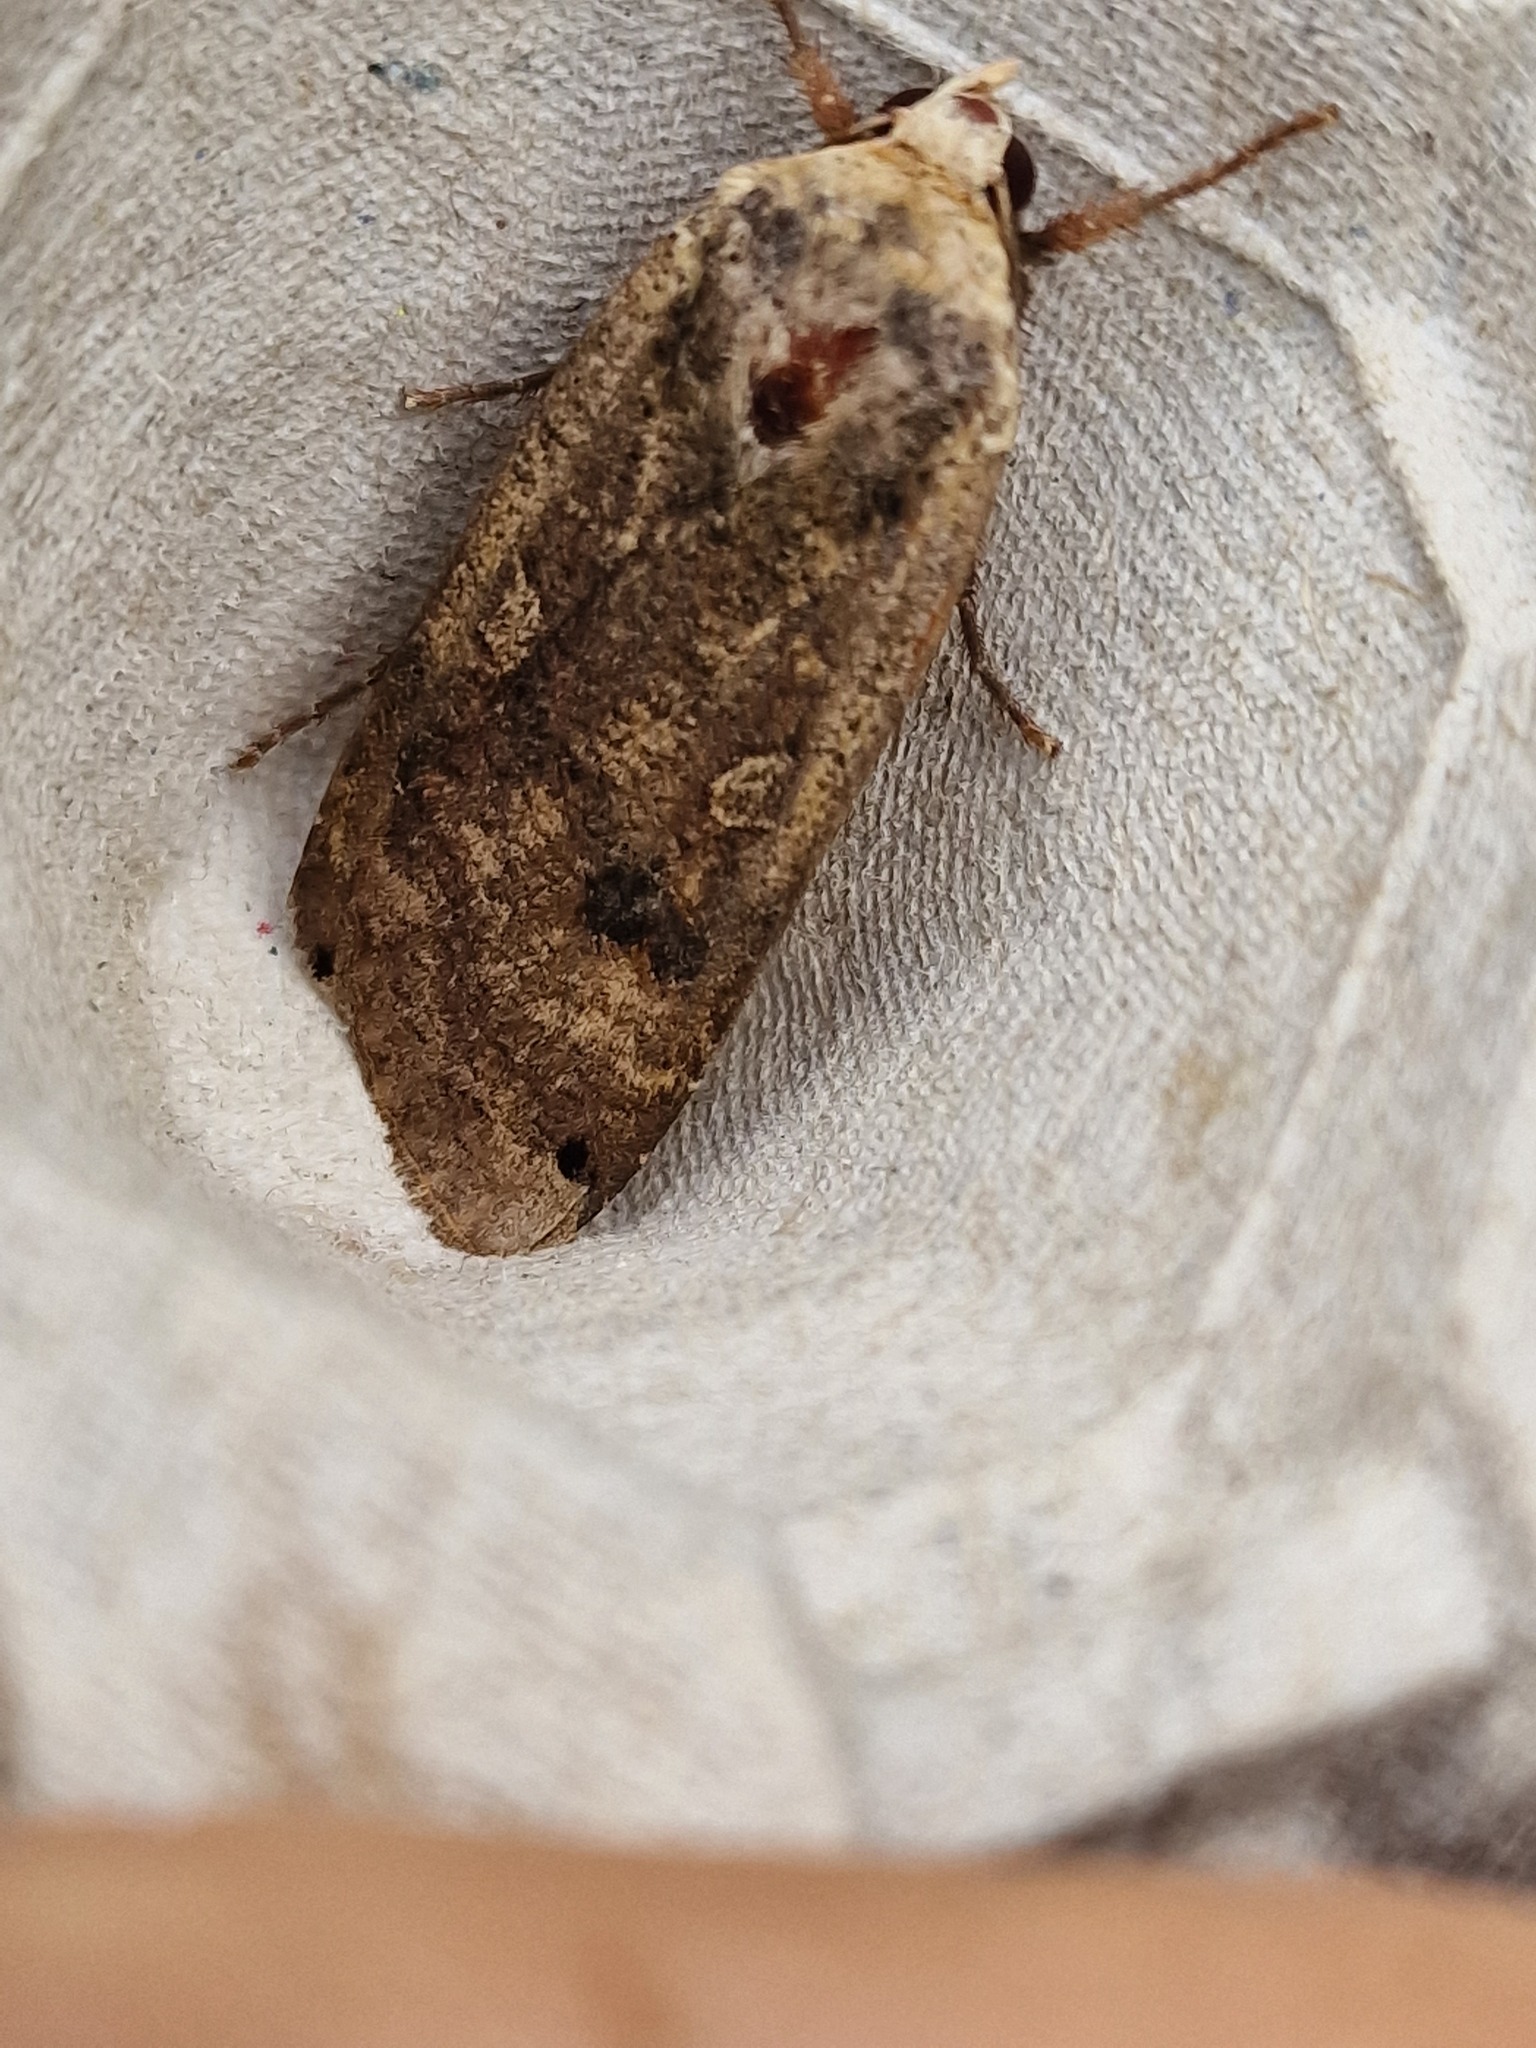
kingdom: Animalia
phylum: Arthropoda
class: Insecta
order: Lepidoptera
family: Noctuidae
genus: Noctua
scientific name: Noctua pronuba
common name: Large yellow underwing
